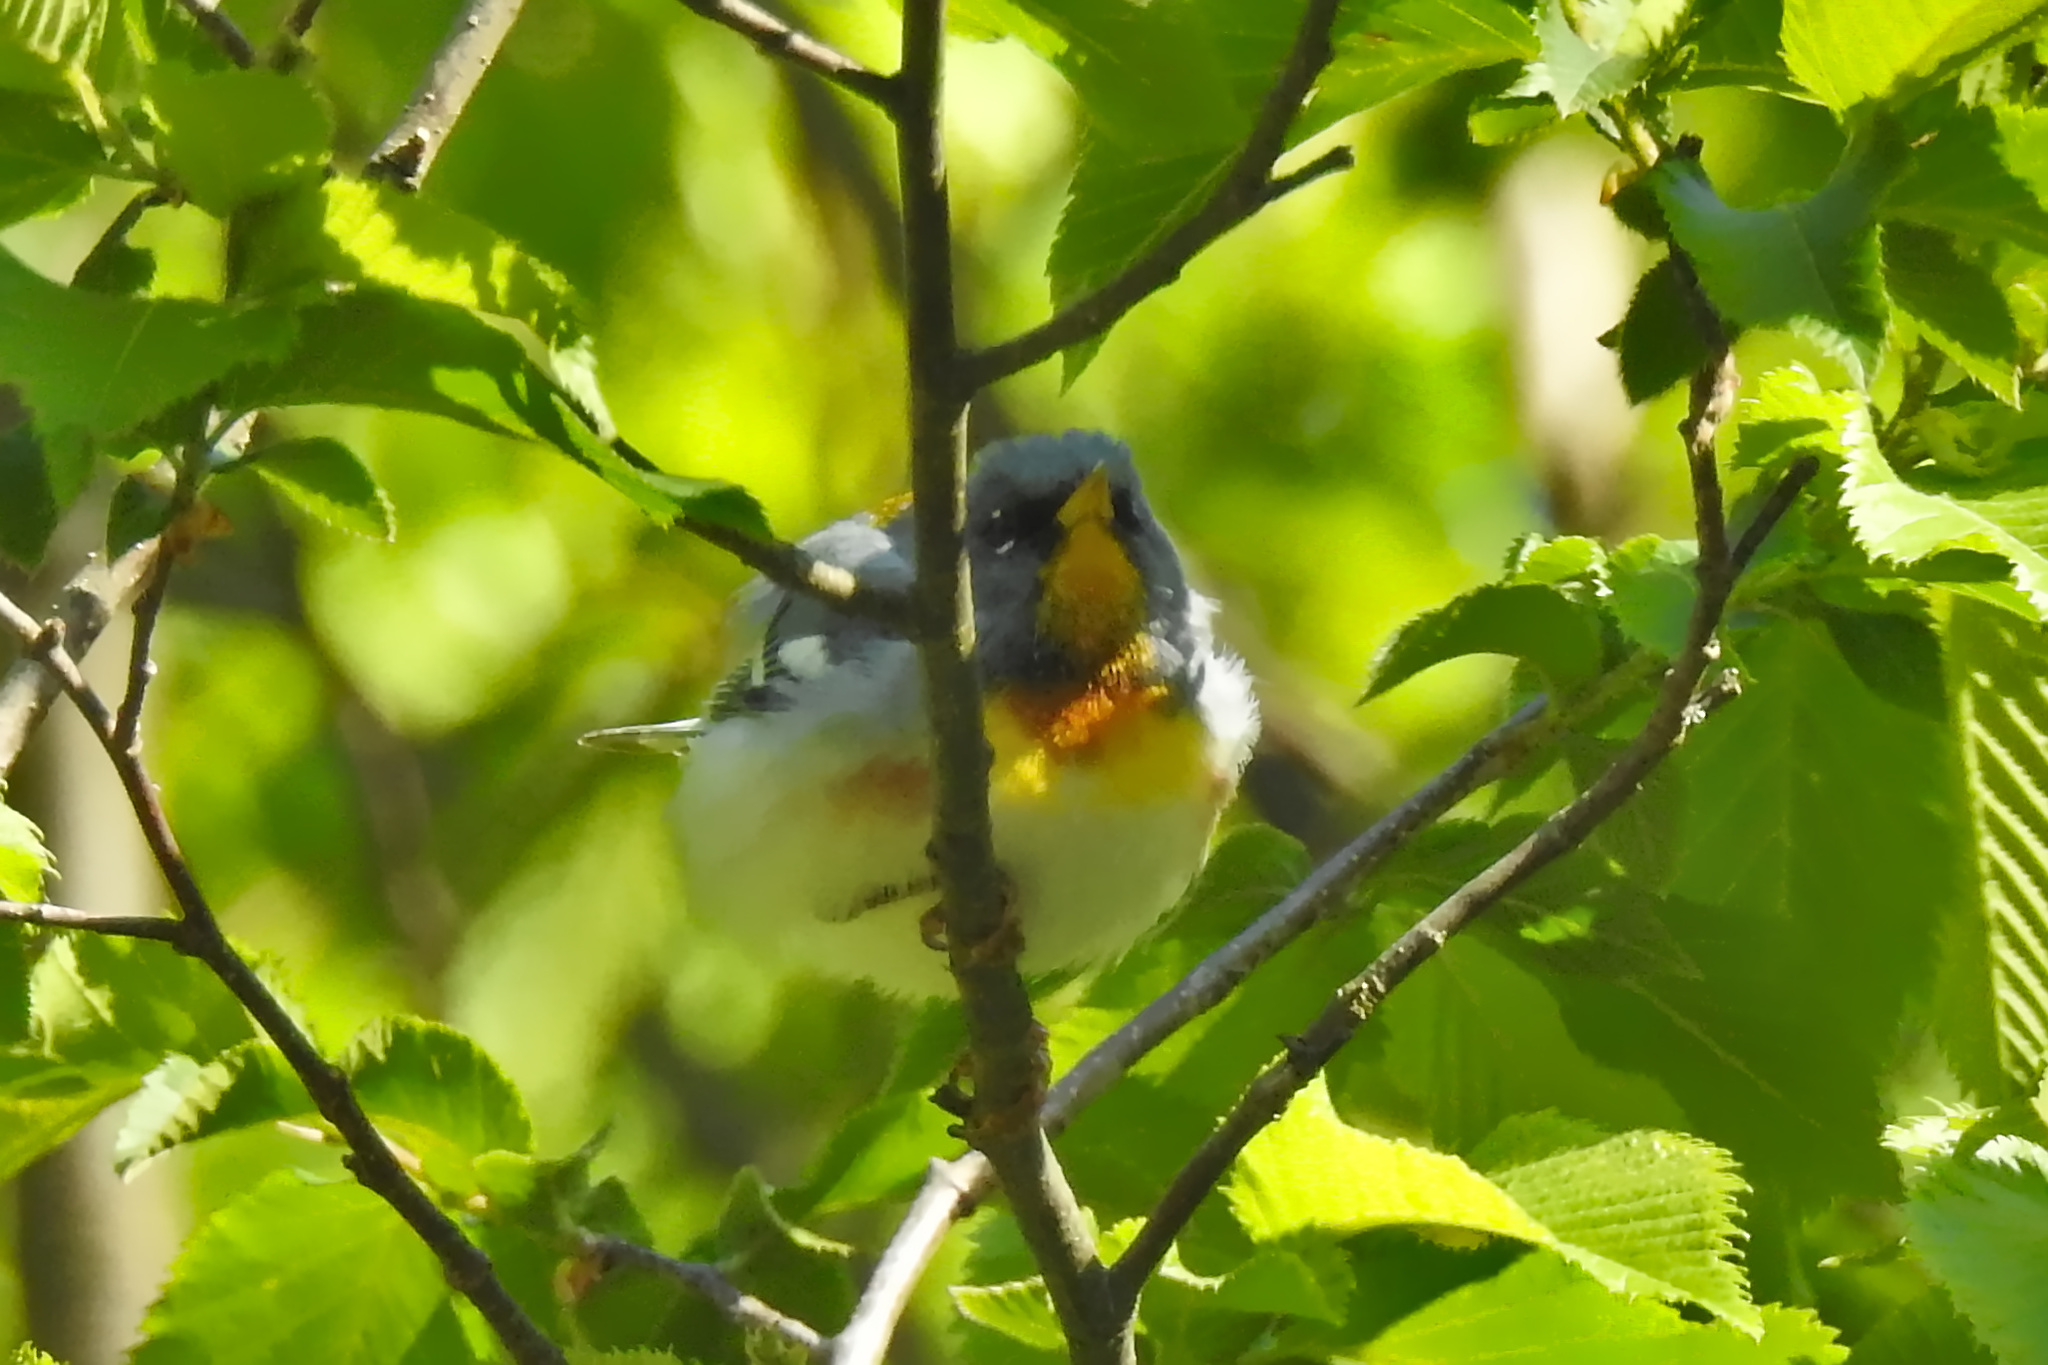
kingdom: Animalia
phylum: Chordata
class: Aves
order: Passeriformes
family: Parulidae
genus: Setophaga
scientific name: Setophaga americana
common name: Northern parula
